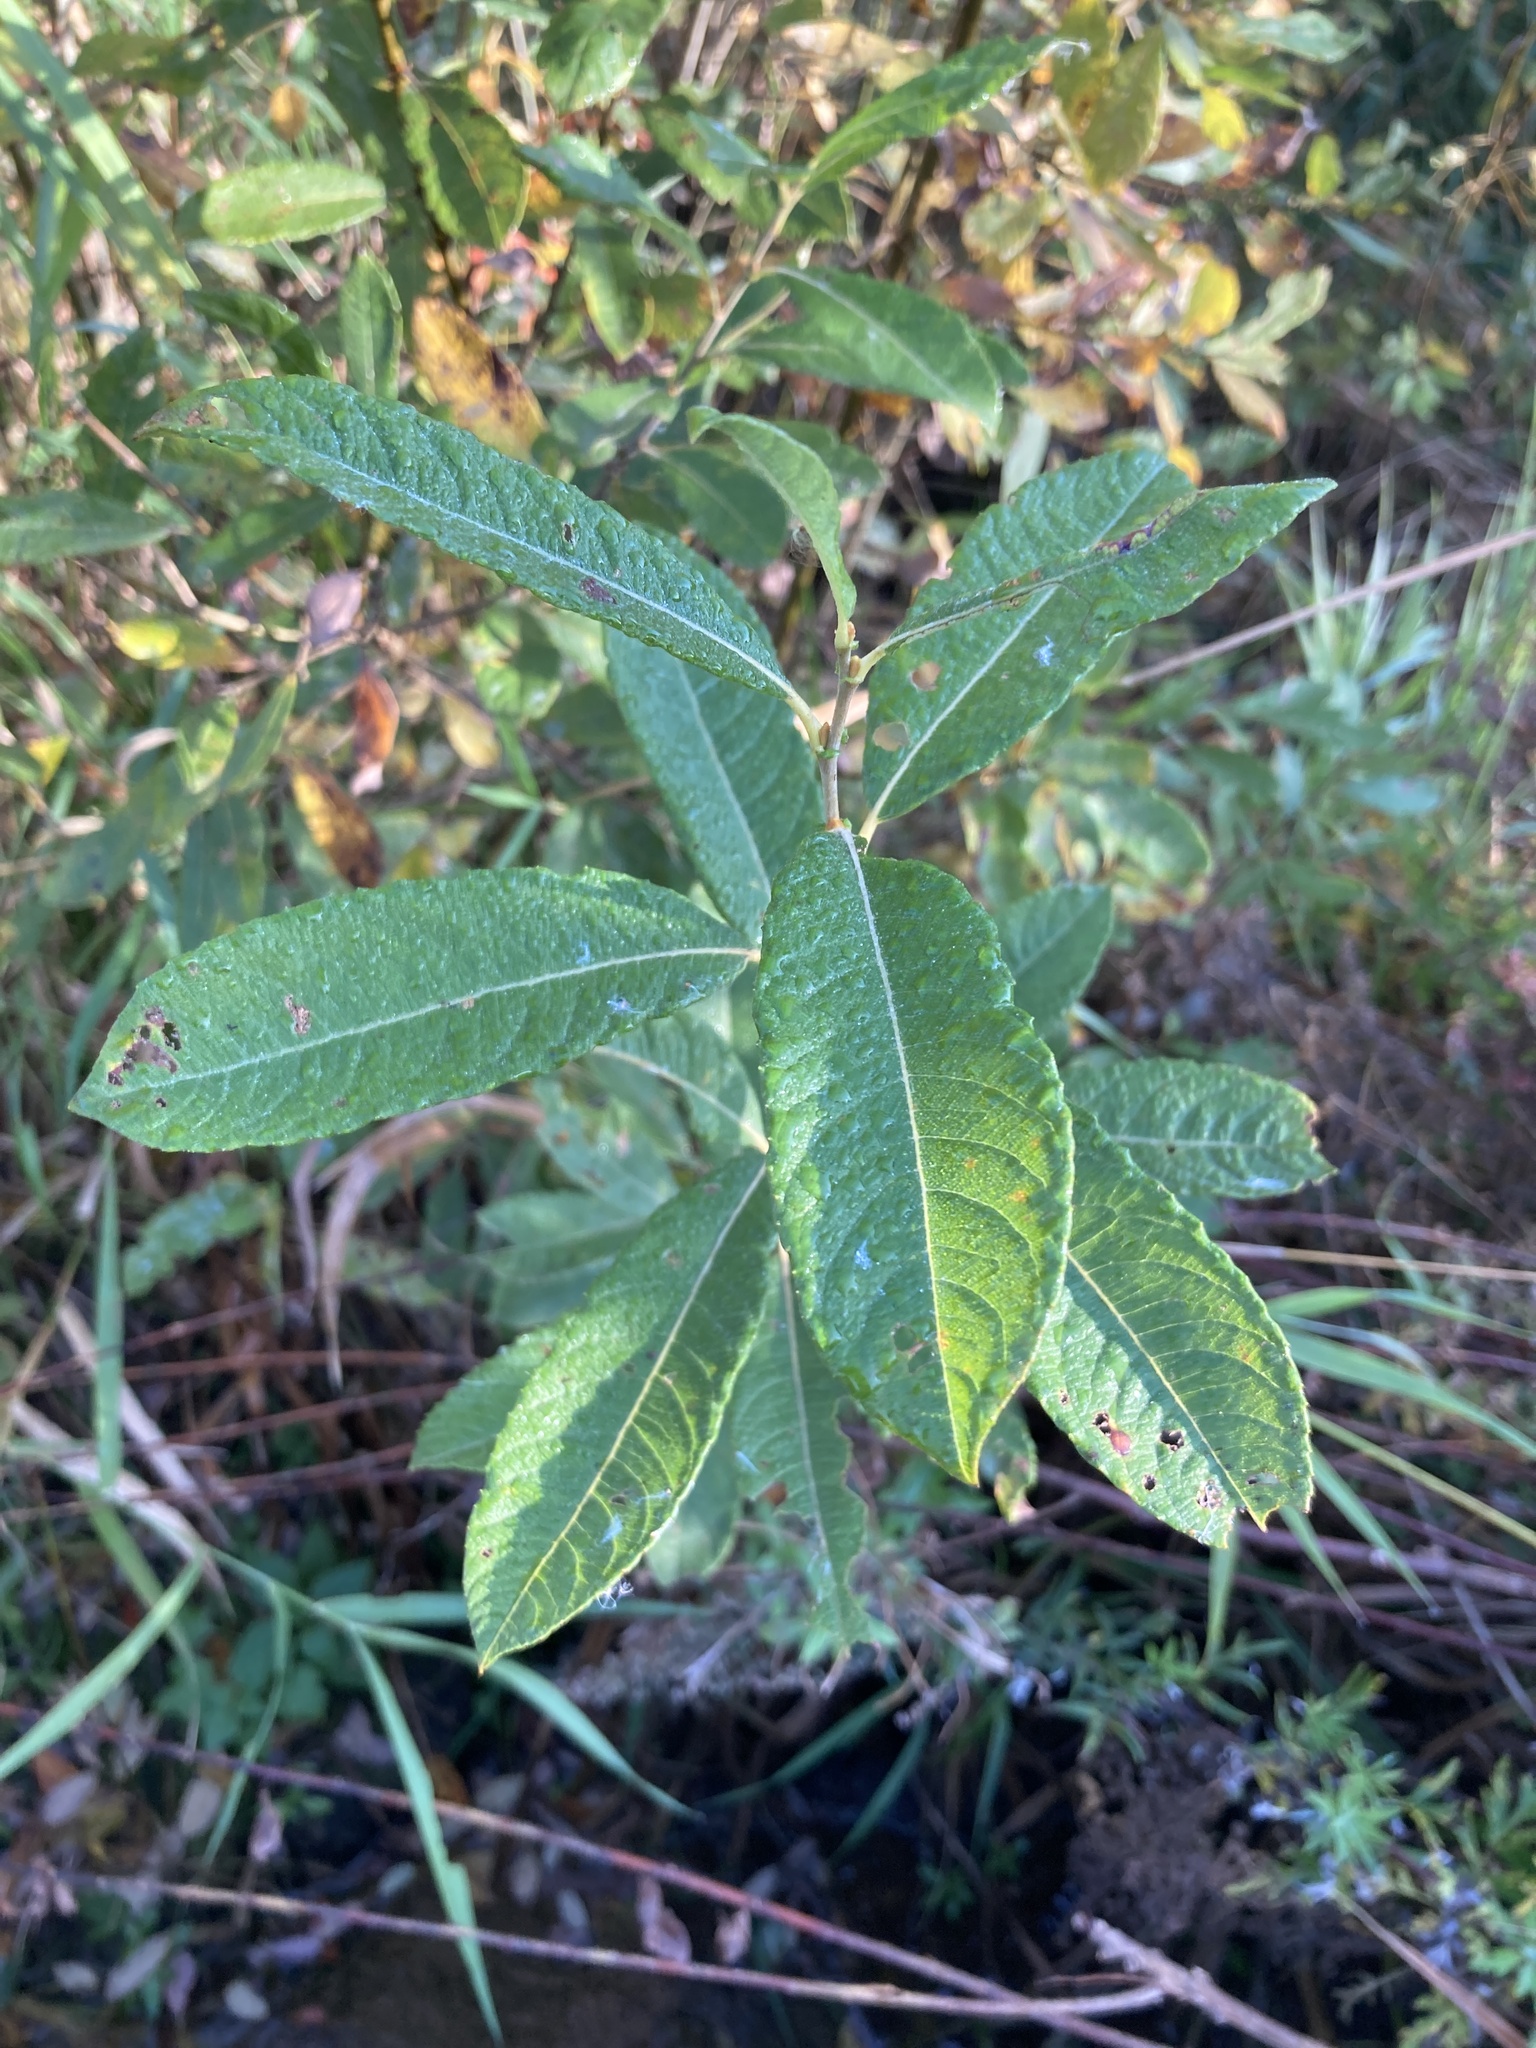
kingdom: Plantae
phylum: Tracheophyta
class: Magnoliopsida
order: Malpighiales
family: Salicaceae
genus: Salix
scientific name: Salix cinerea
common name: Common sallow
